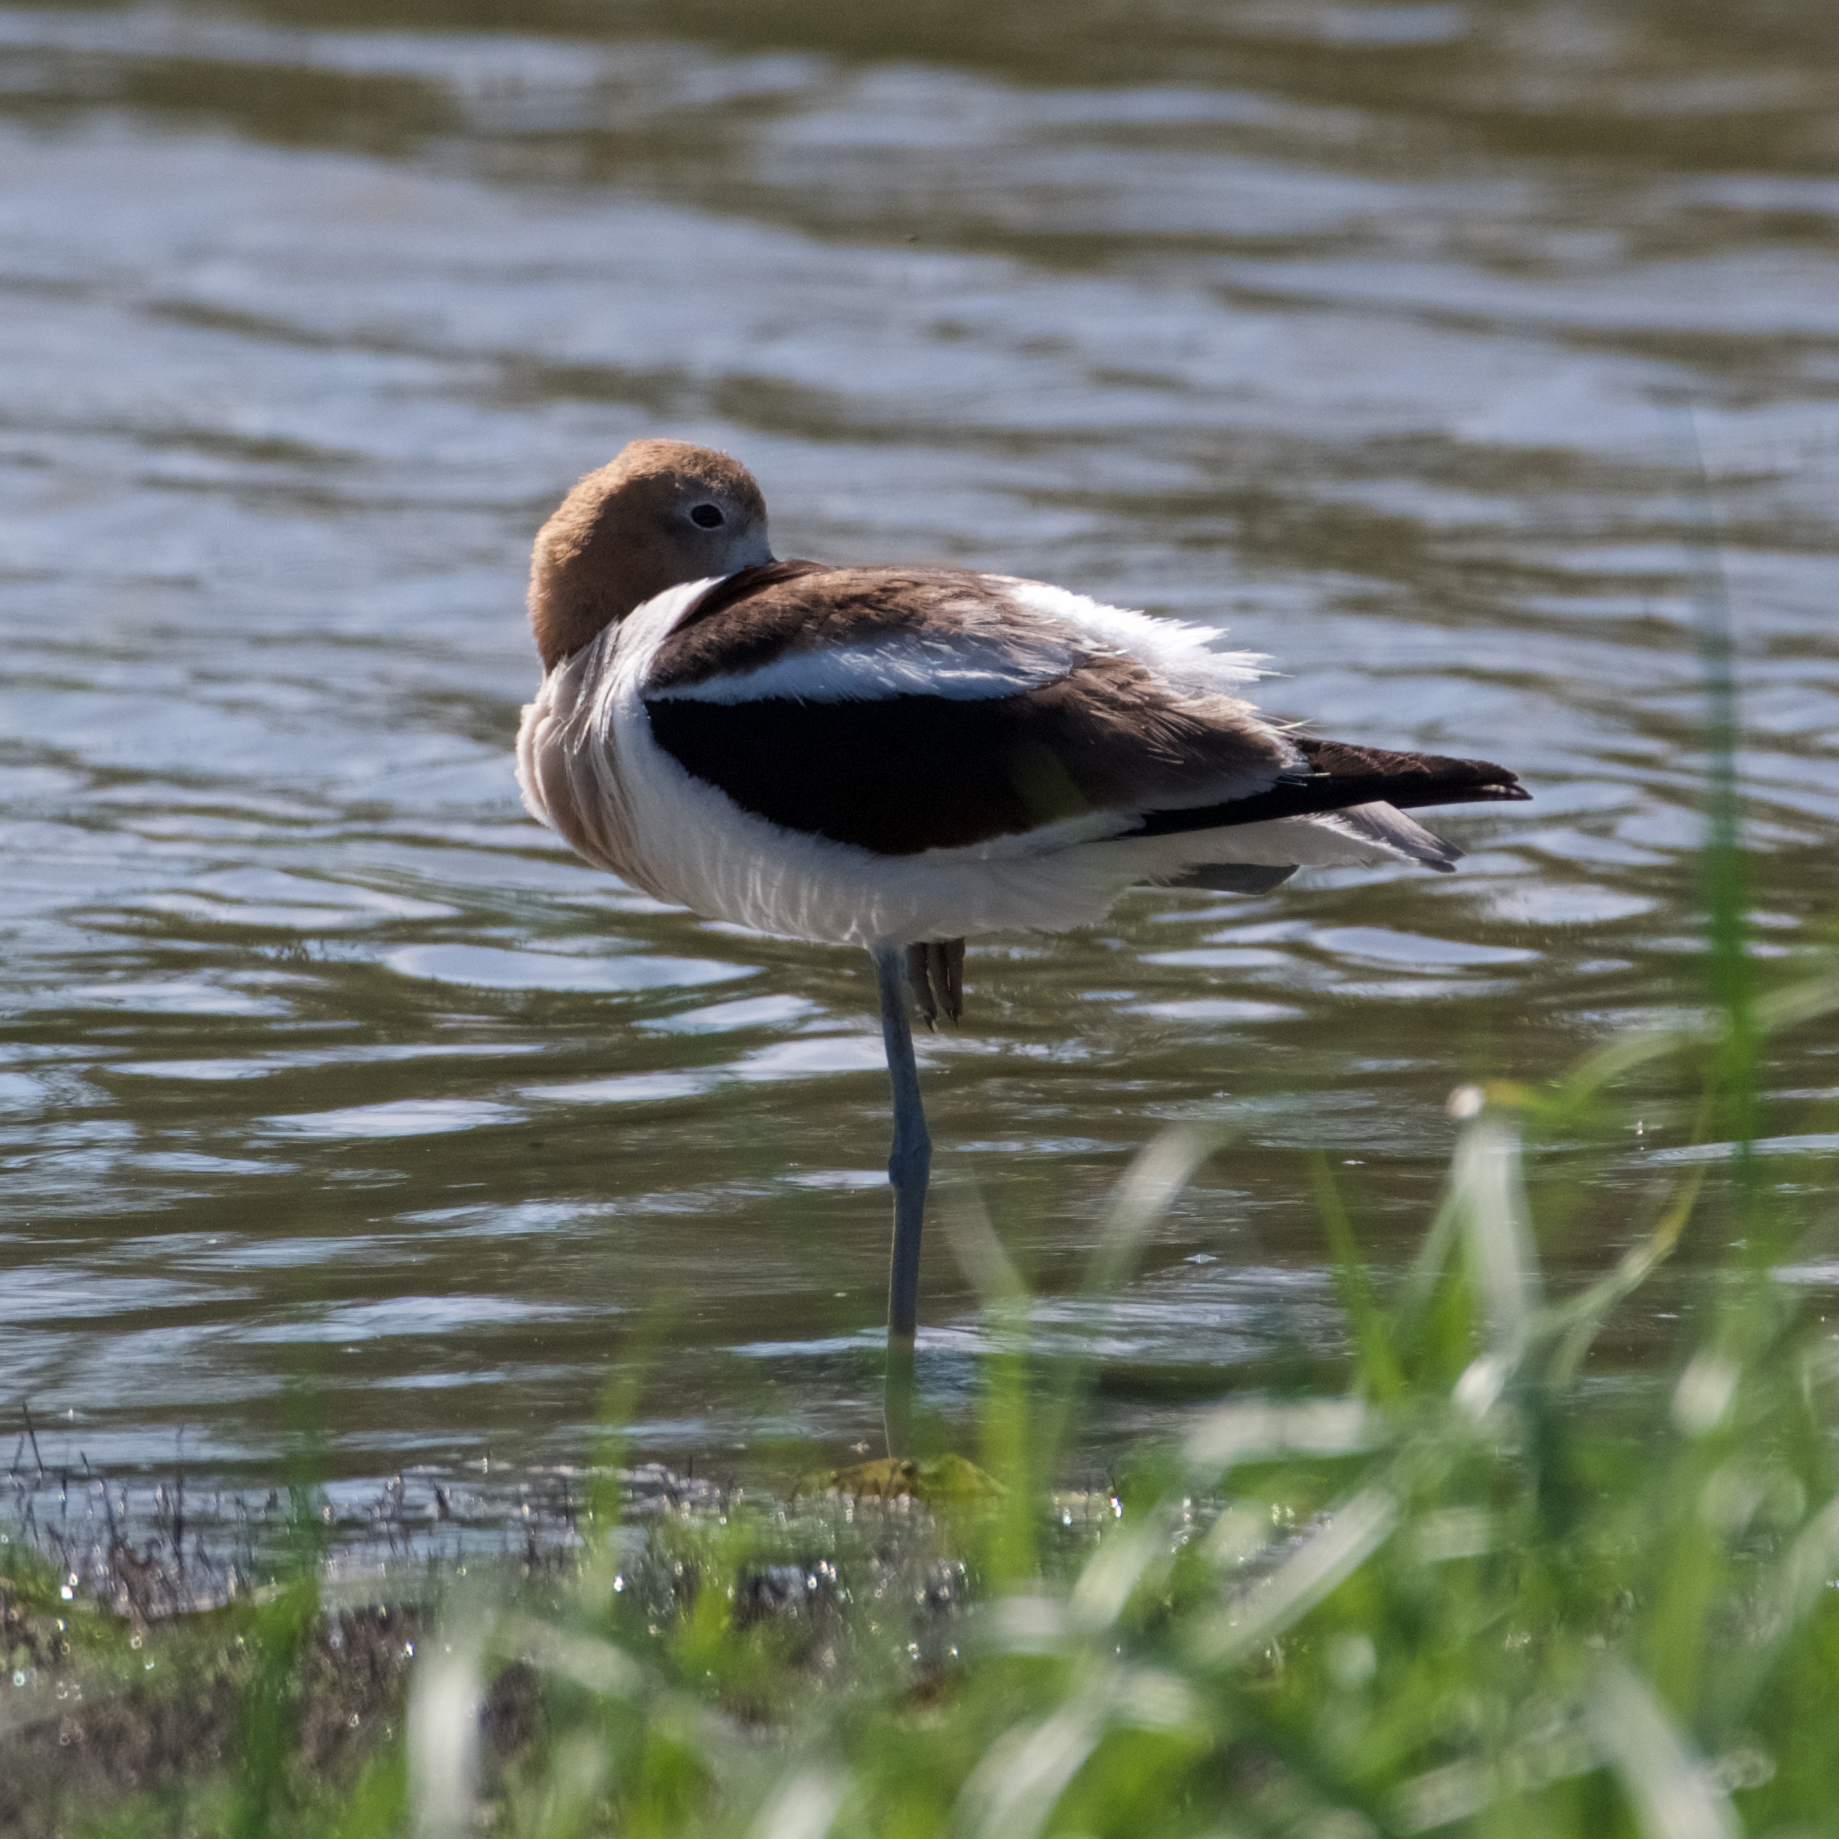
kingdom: Animalia
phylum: Chordata
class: Aves
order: Charadriiformes
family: Recurvirostridae
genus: Recurvirostra
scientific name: Recurvirostra americana
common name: American avocet
